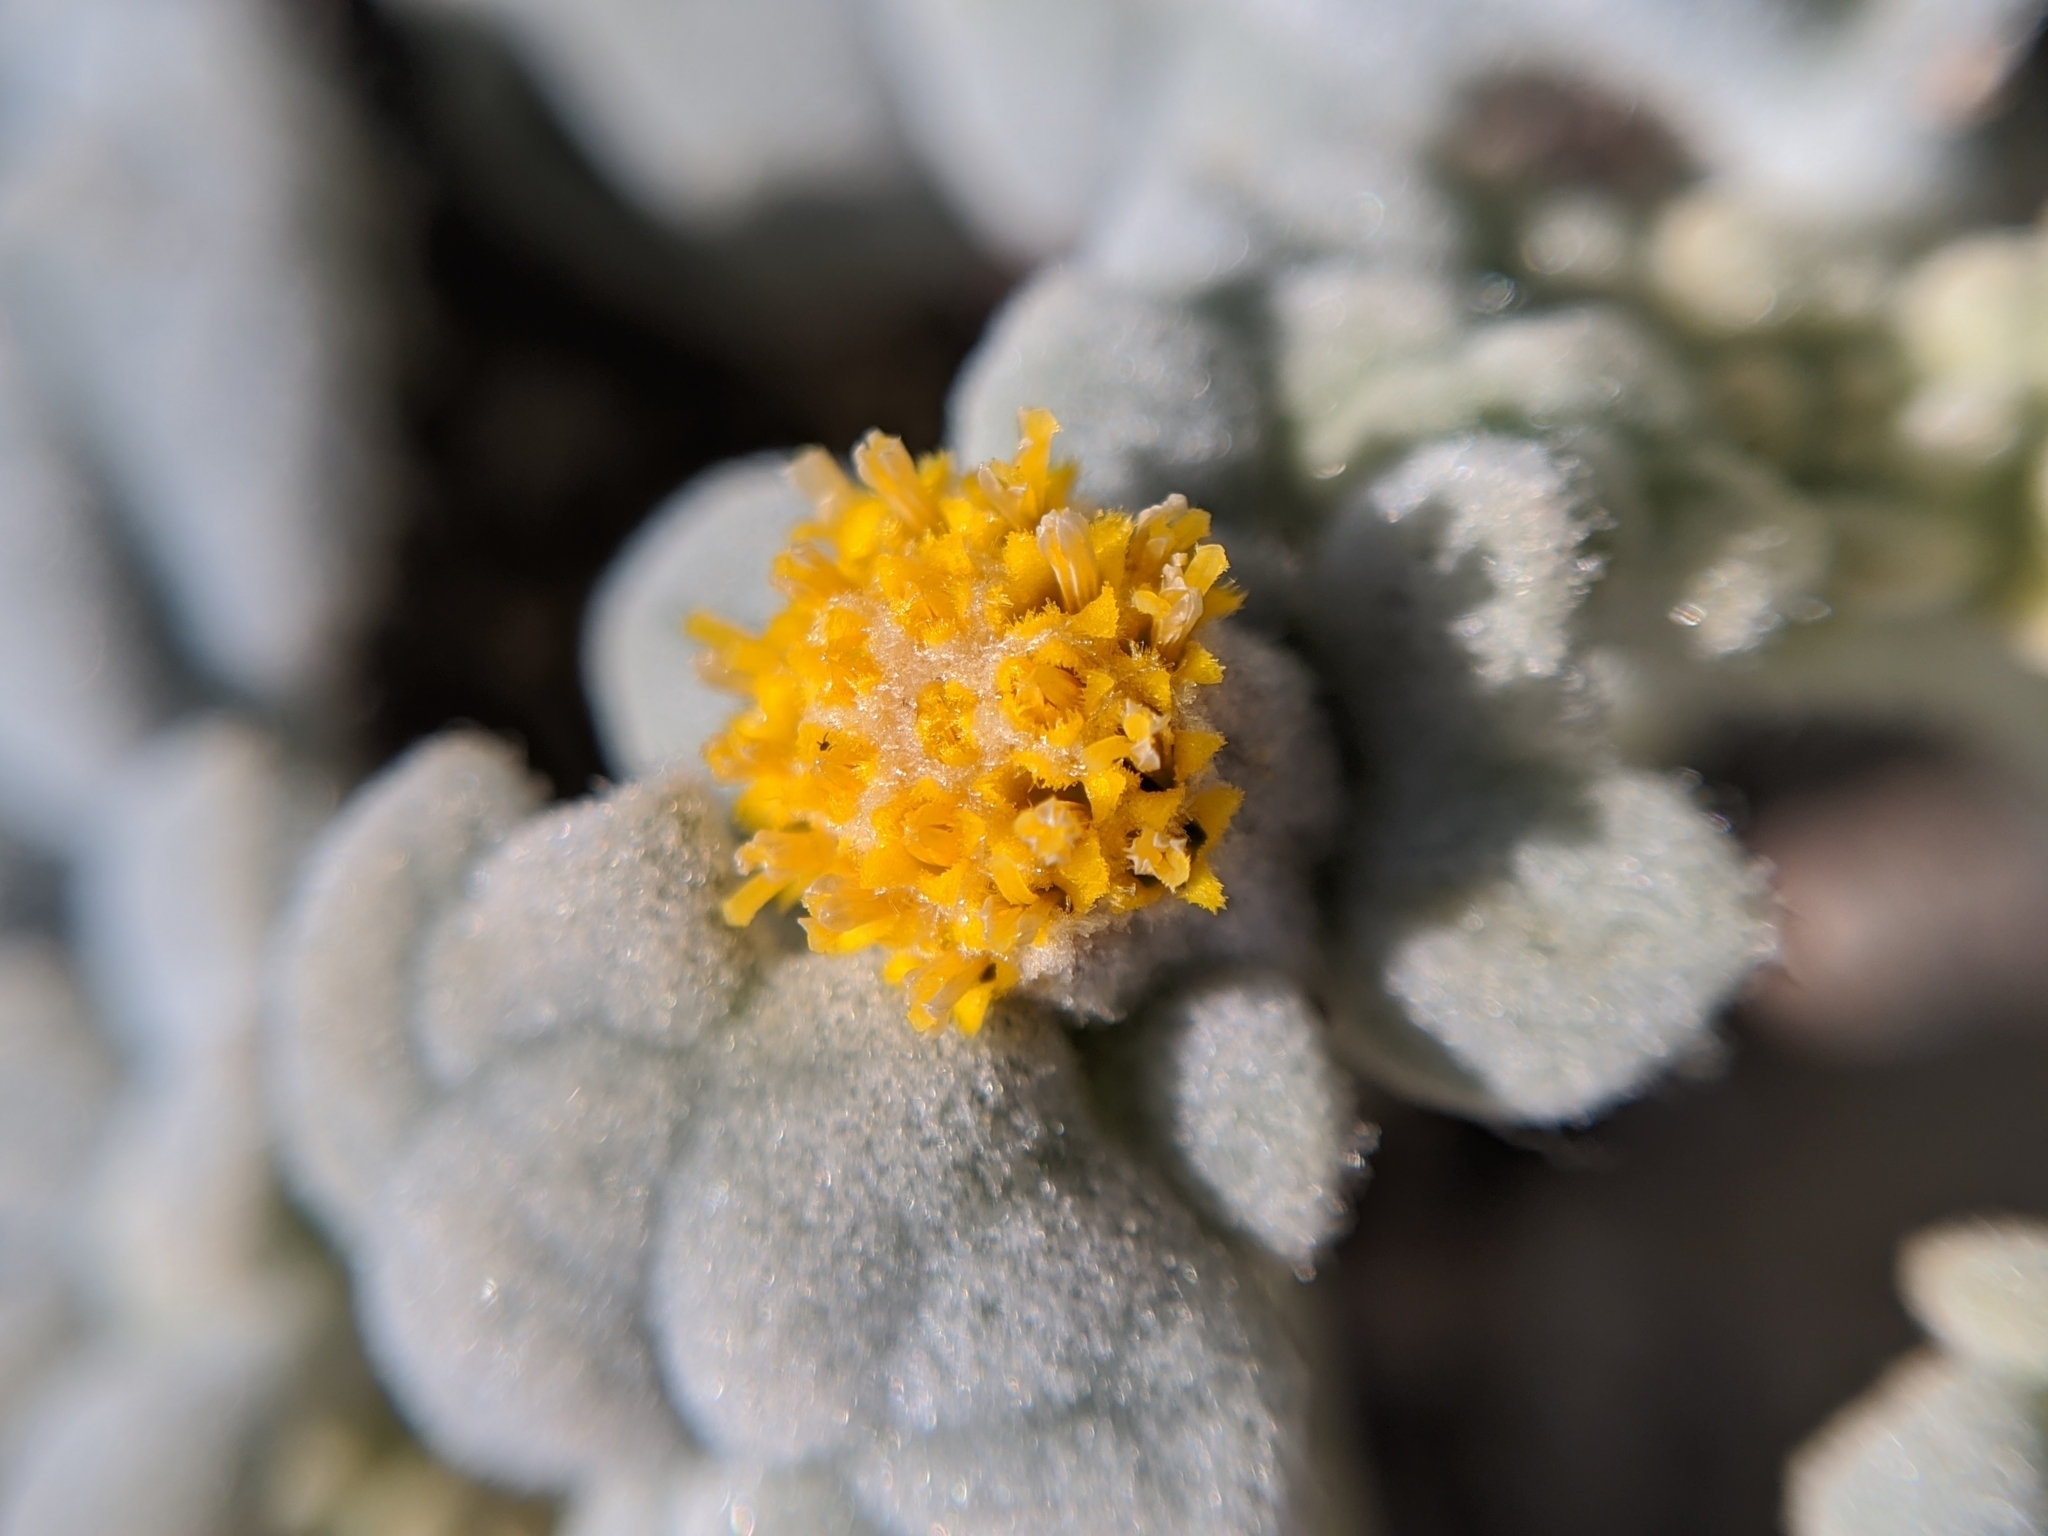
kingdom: Plantae
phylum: Tracheophyta
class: Magnoliopsida
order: Asterales
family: Asteraceae
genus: Psathyrotes
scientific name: Psathyrotes ramosissima
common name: Turtleback
